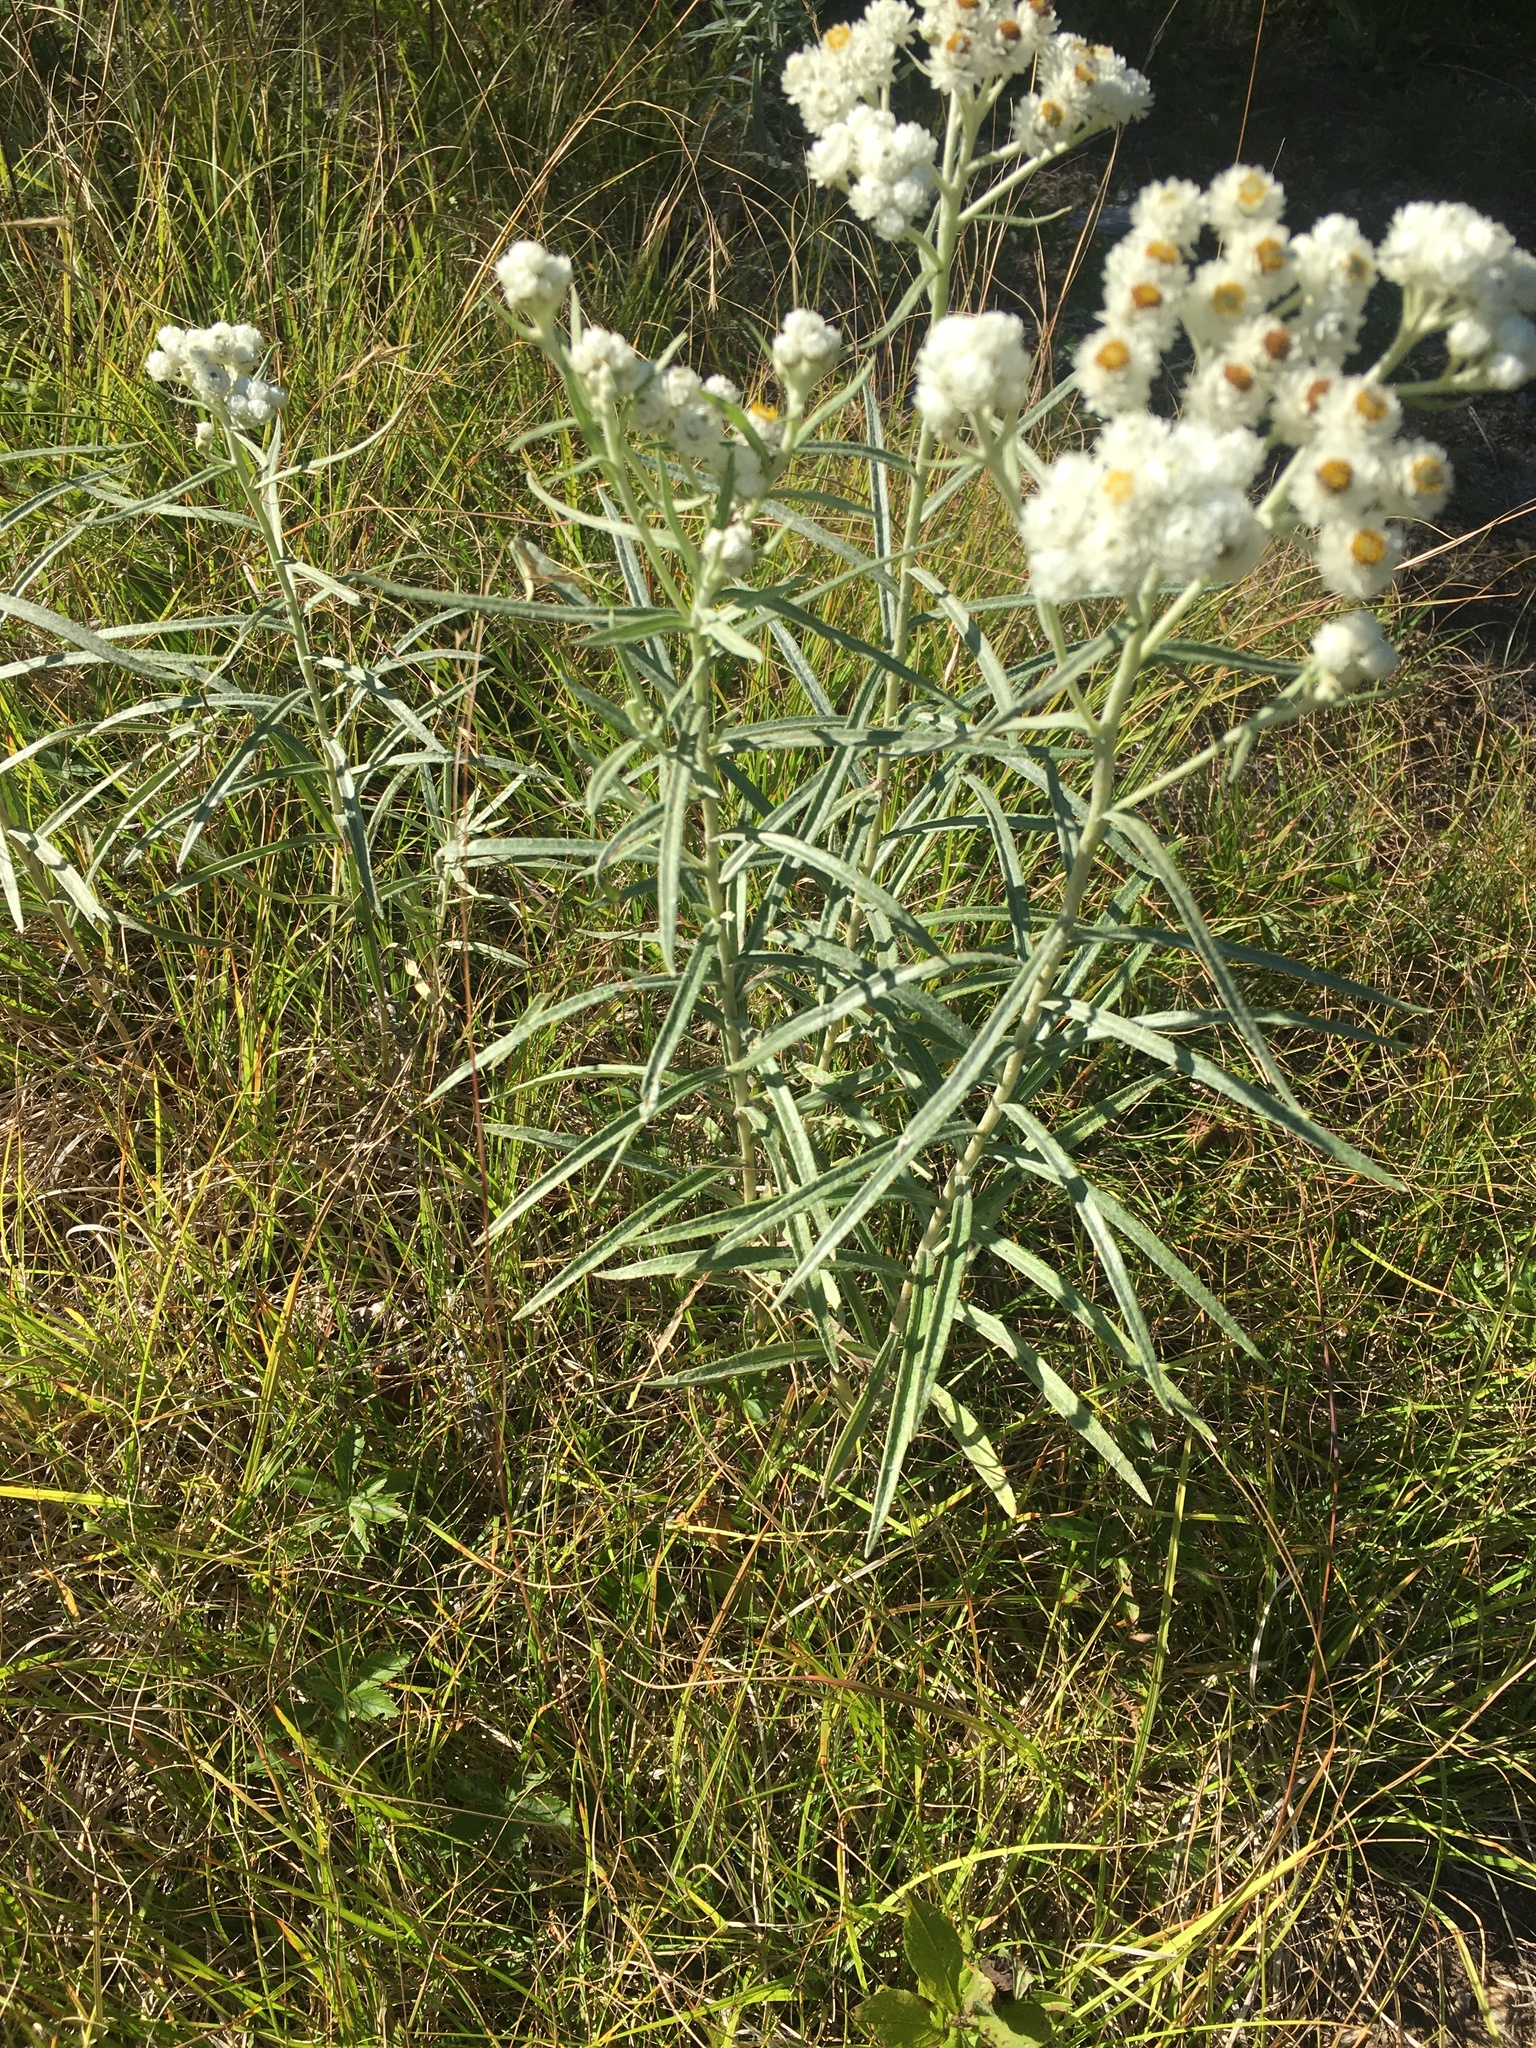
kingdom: Plantae
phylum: Tracheophyta
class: Magnoliopsida
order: Asterales
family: Asteraceae
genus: Anaphalis
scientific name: Anaphalis margaritacea
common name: Pearly everlasting
